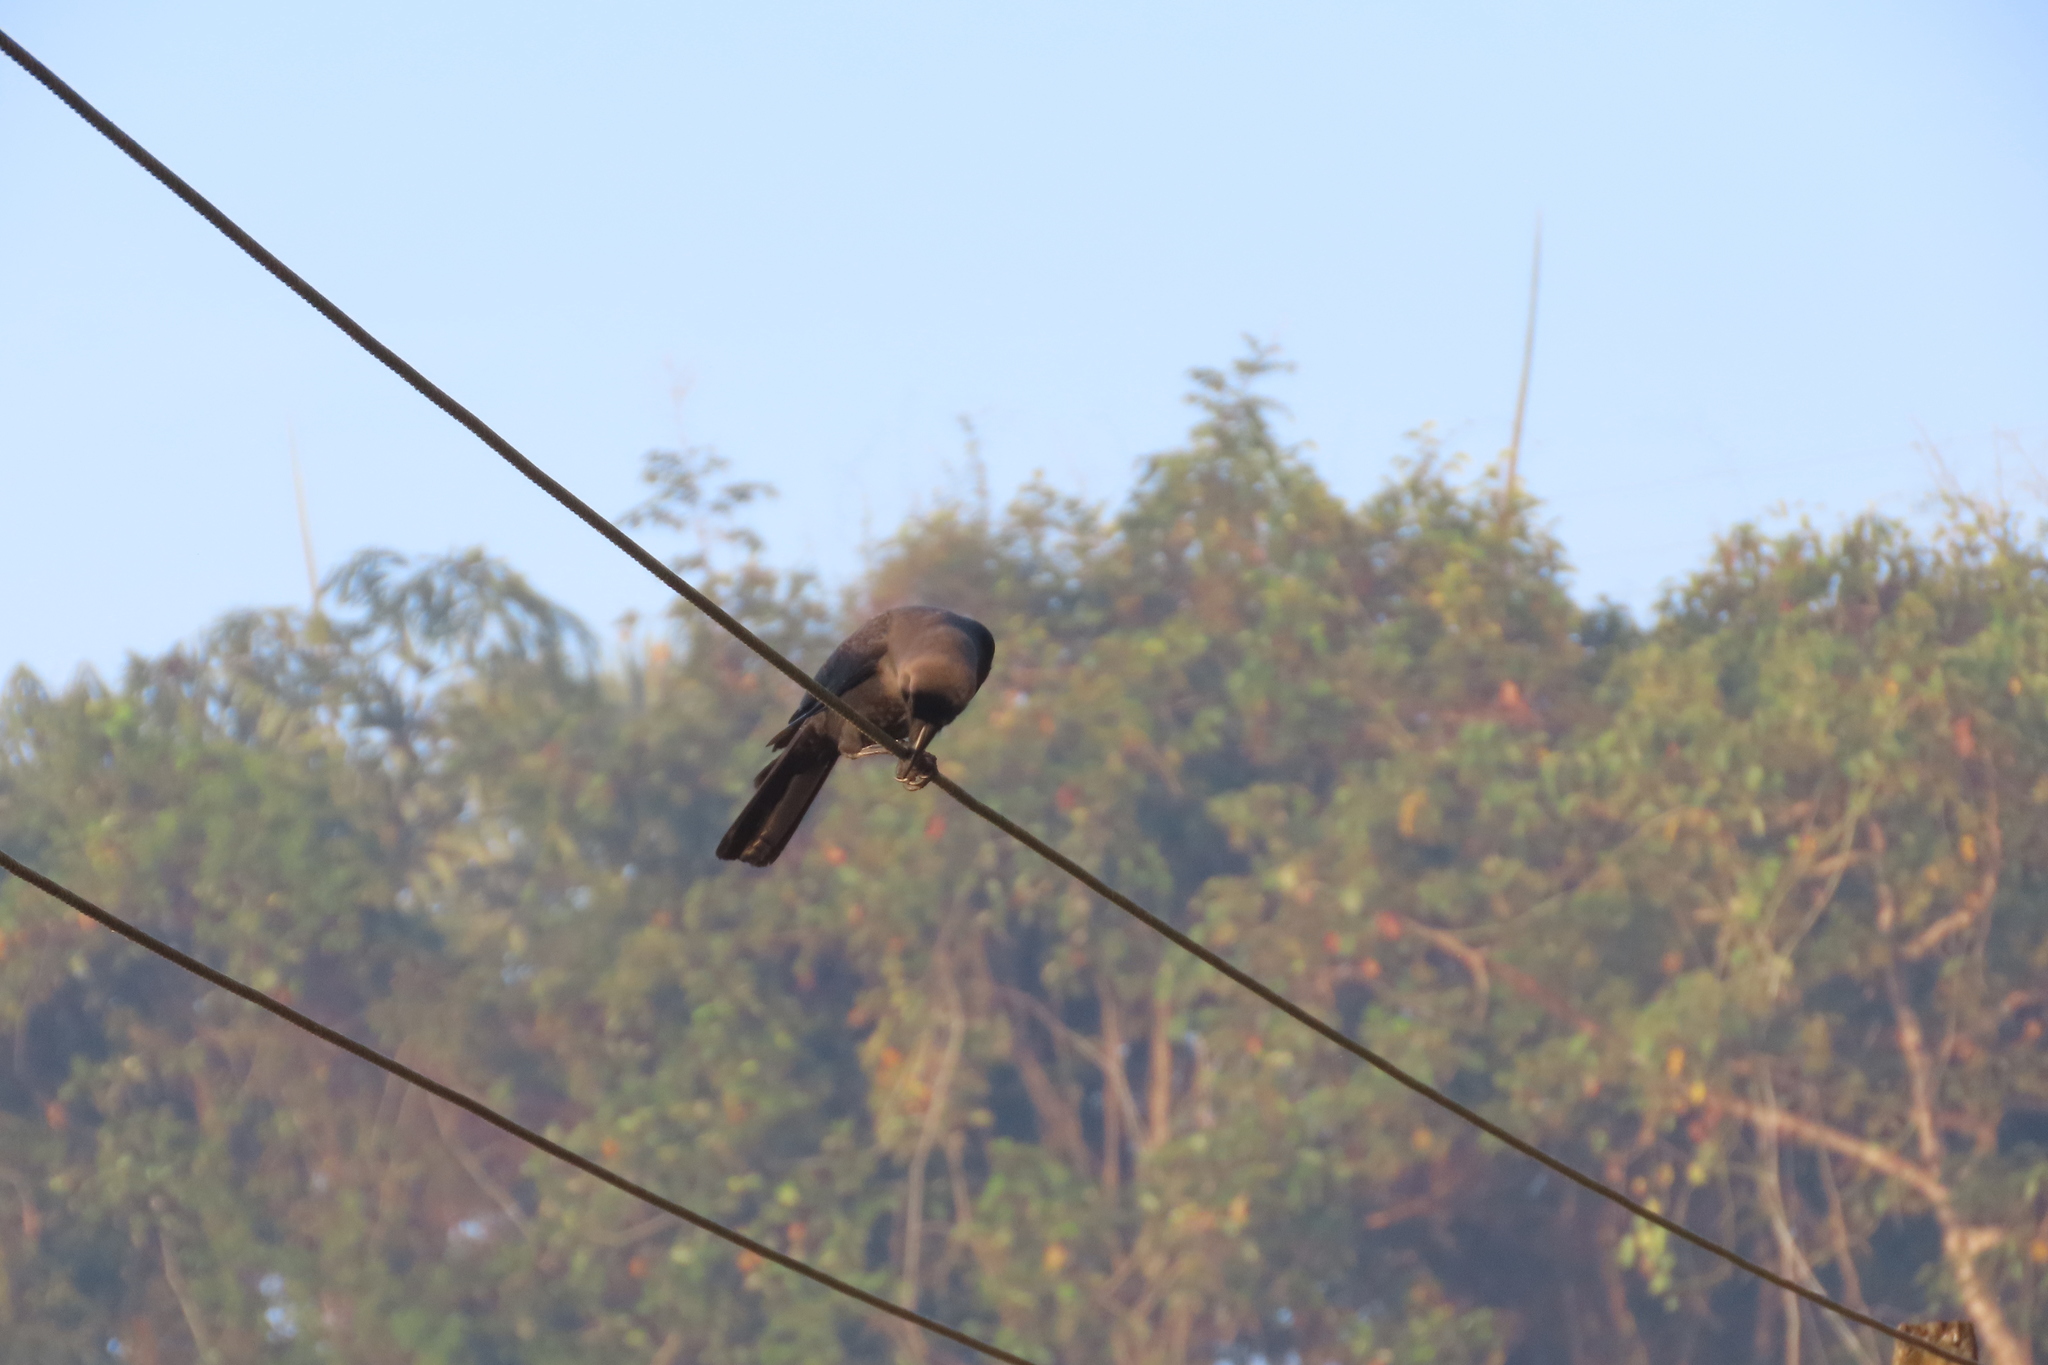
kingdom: Animalia
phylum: Chordata
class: Aves
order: Passeriformes
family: Corvidae
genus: Corvus
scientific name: Corvus splendens
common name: House crow
